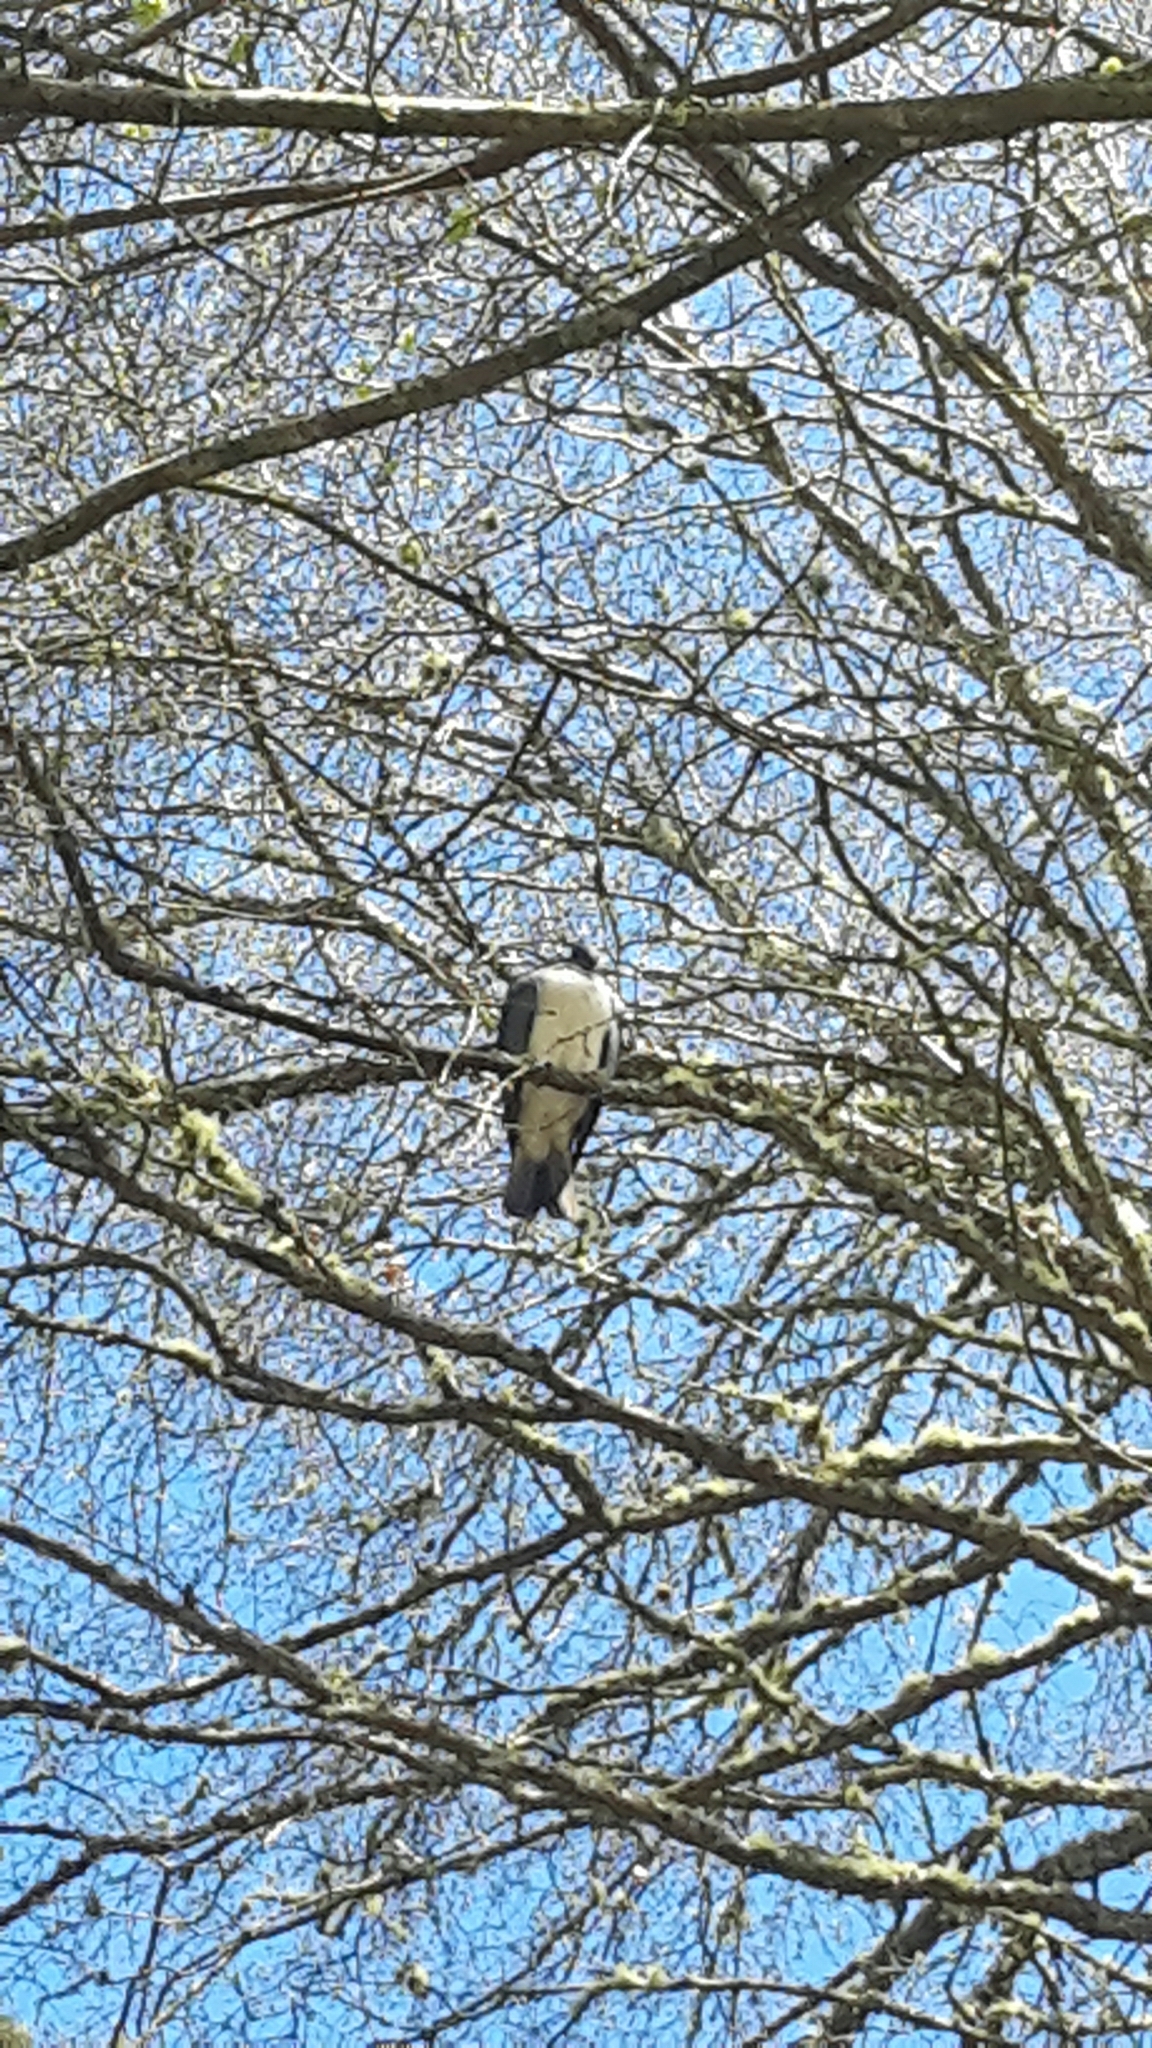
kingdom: Animalia
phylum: Chordata
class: Aves
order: Columbiformes
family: Columbidae
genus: Hemiphaga
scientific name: Hemiphaga novaeseelandiae
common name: New zealand pigeon
